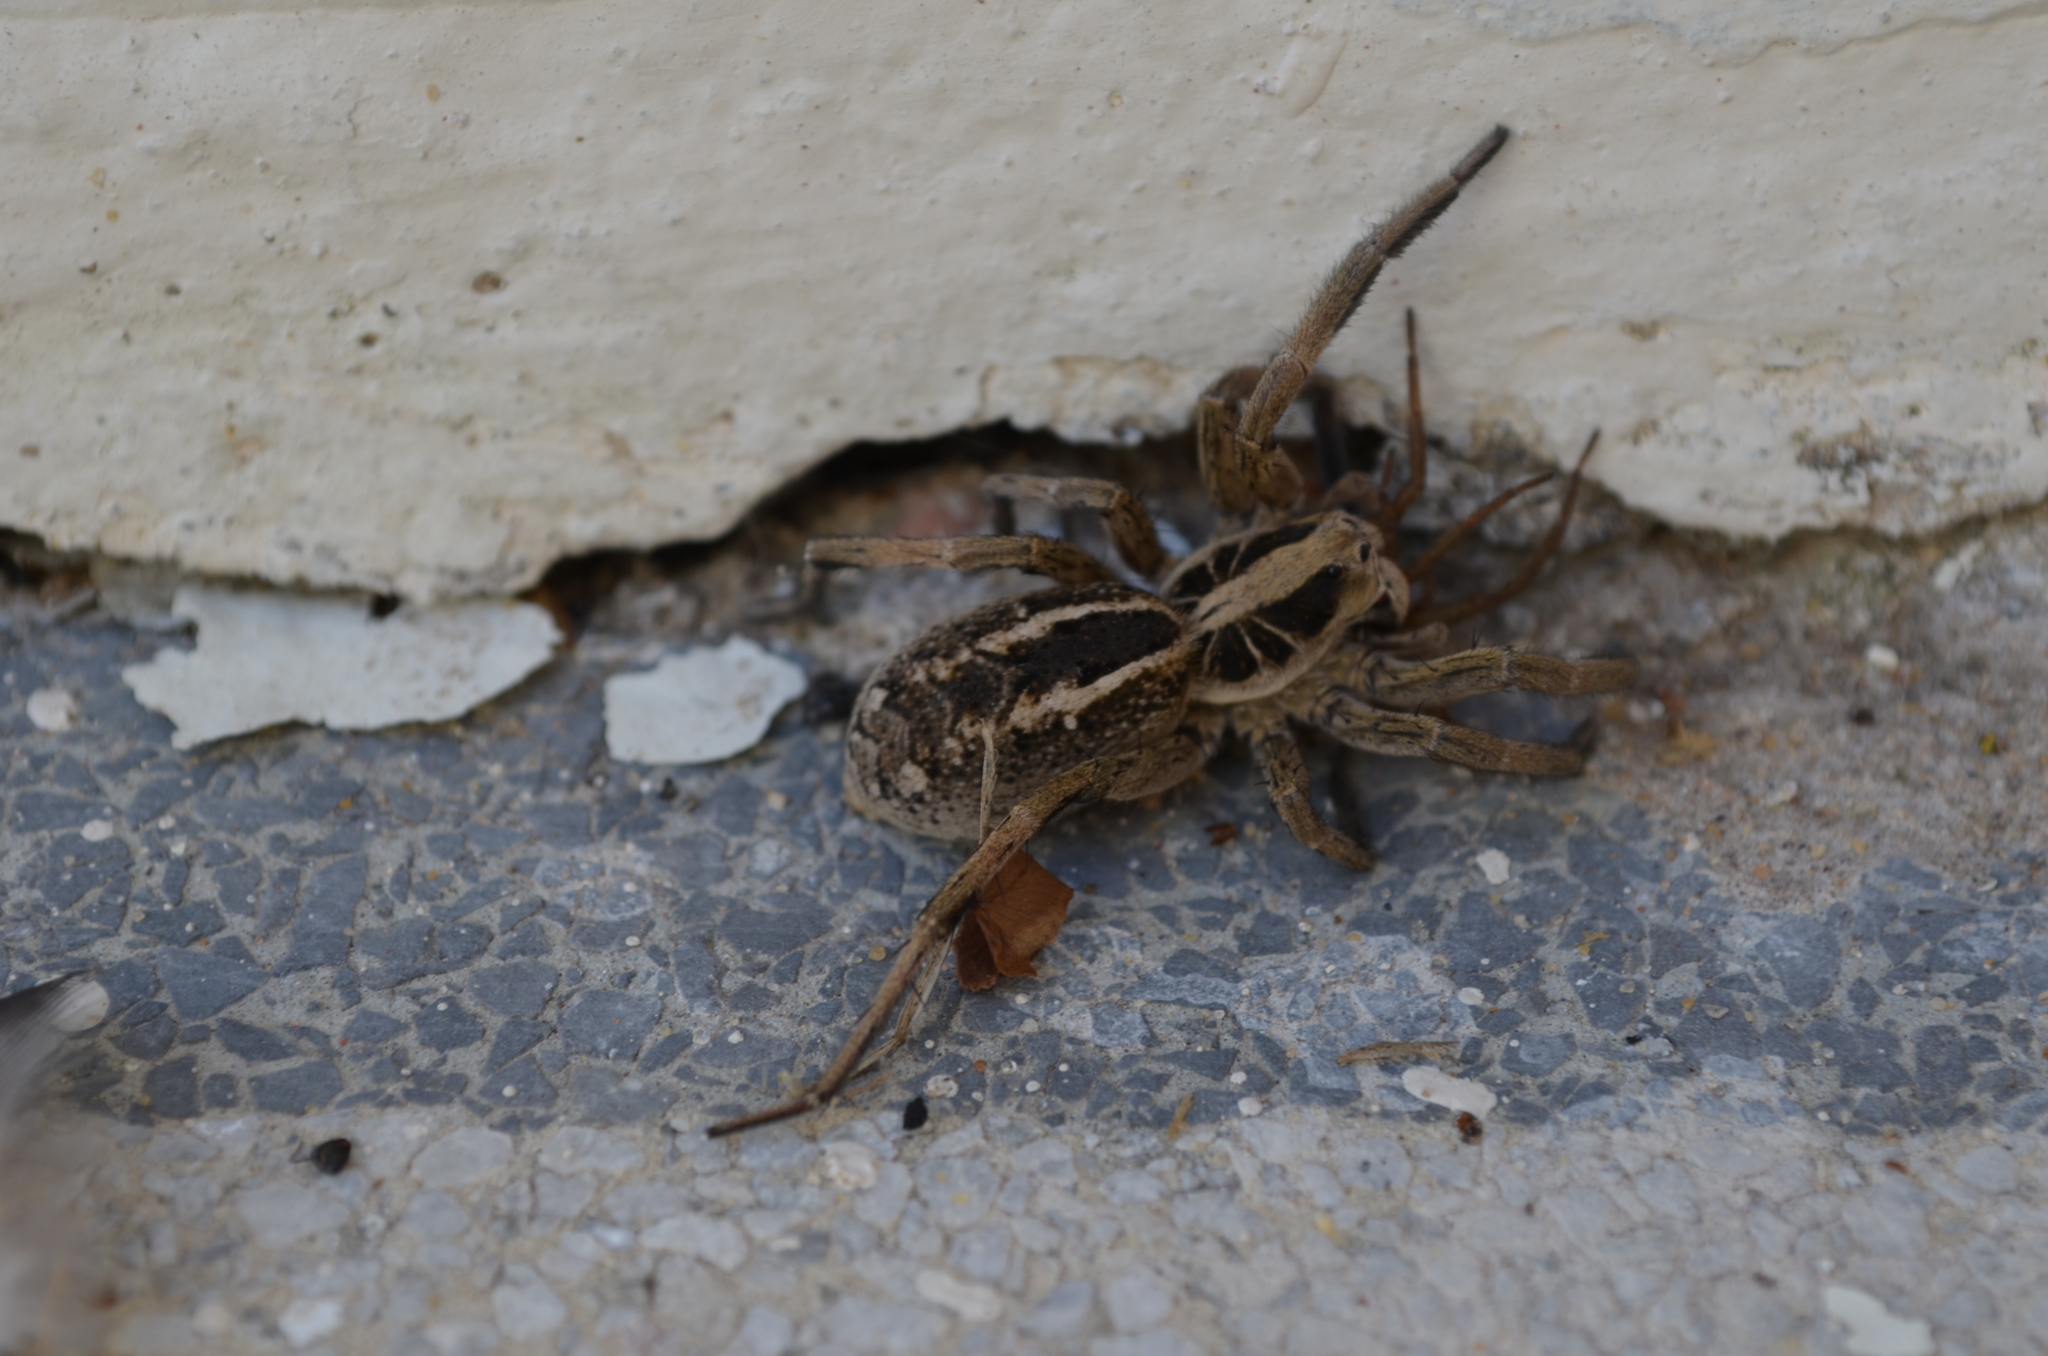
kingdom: Animalia
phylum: Arthropoda
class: Arachnida
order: Araneae
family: Lycosidae
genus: Lycosa
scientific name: Lycosa pampeana
